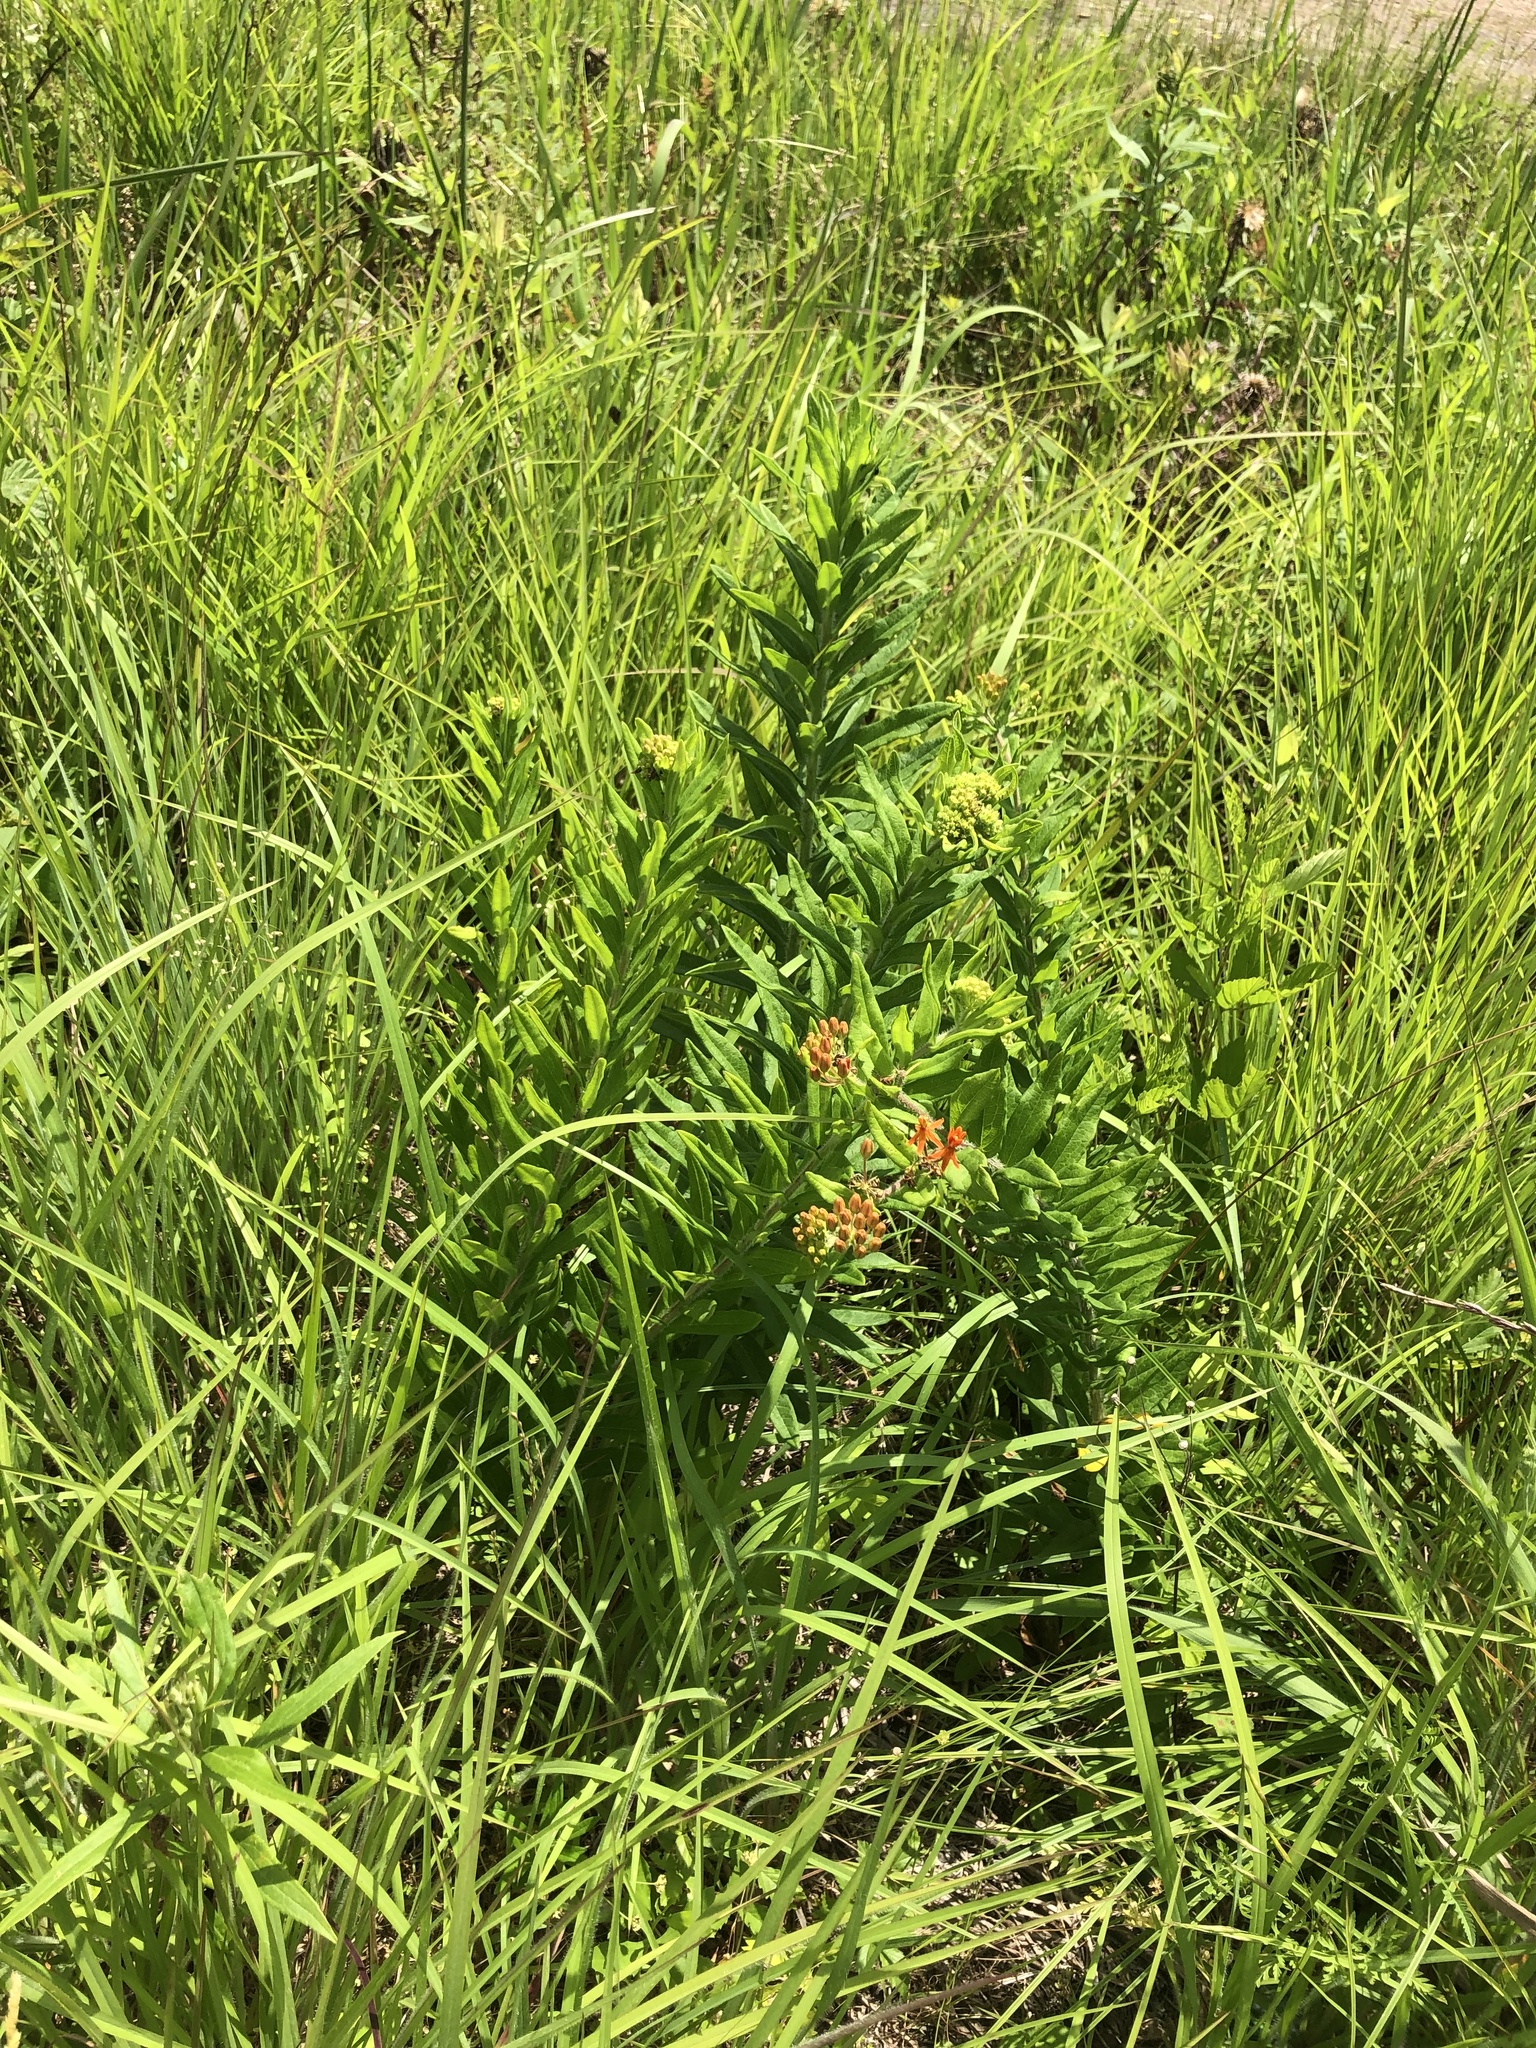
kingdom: Plantae
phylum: Tracheophyta
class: Magnoliopsida
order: Gentianales
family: Apocynaceae
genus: Asclepias
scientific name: Asclepias tuberosa
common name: Butterfly milkweed
